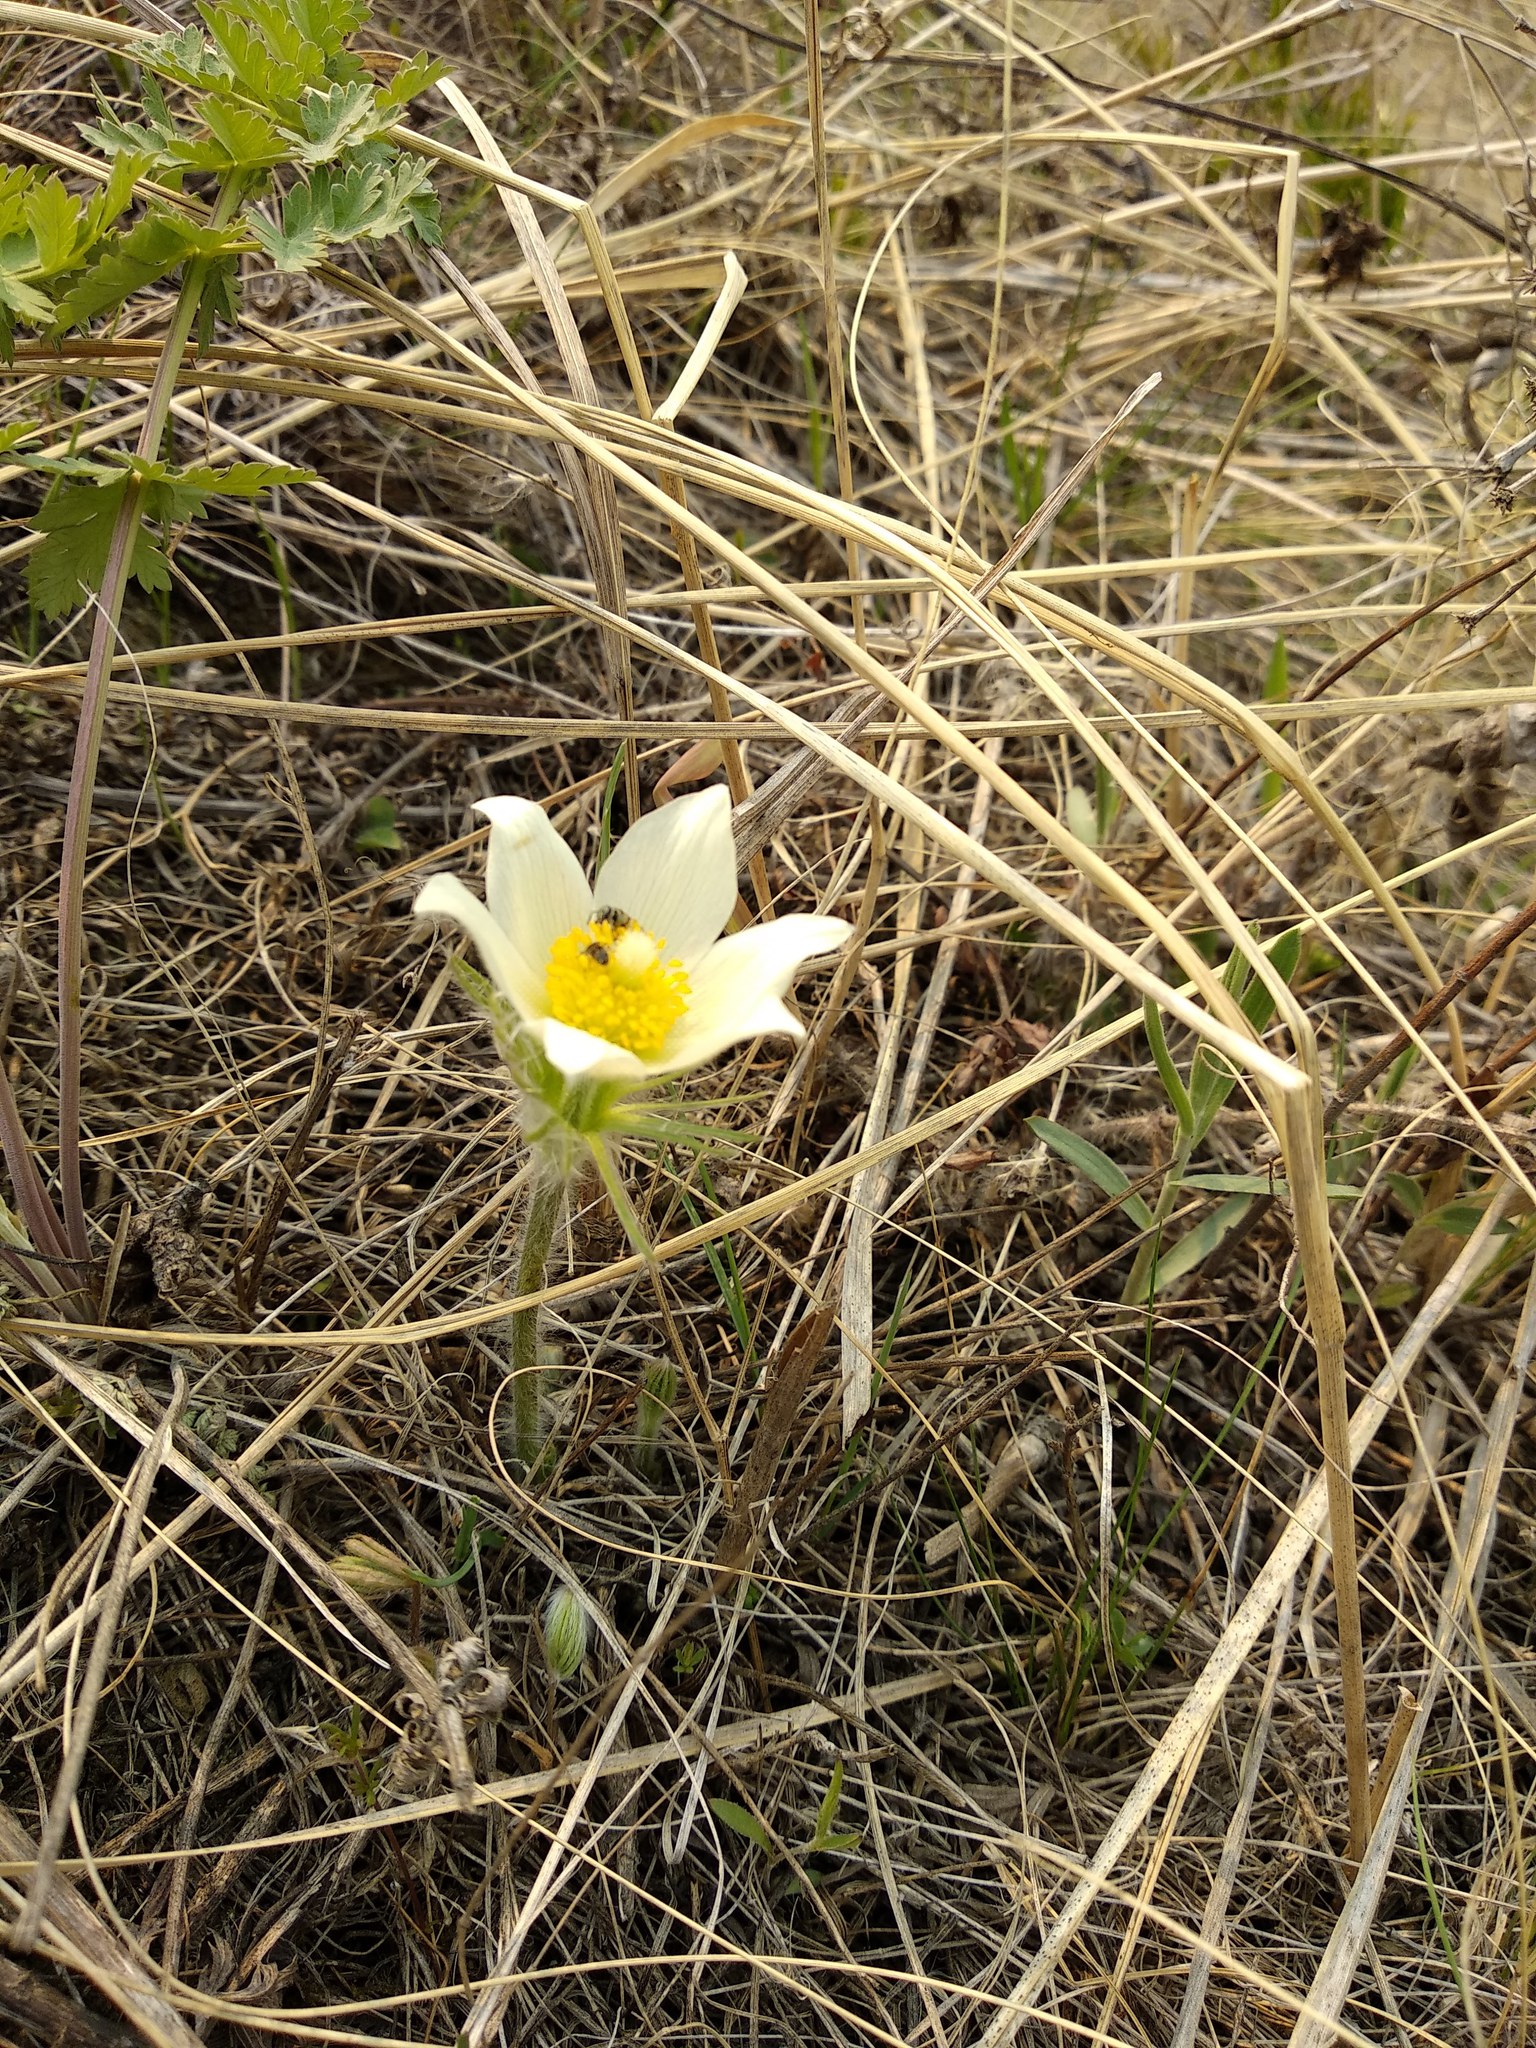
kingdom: Plantae
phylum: Tracheophyta
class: Magnoliopsida
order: Ranunculales
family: Ranunculaceae
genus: Pulsatilla
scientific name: Pulsatilla patens
